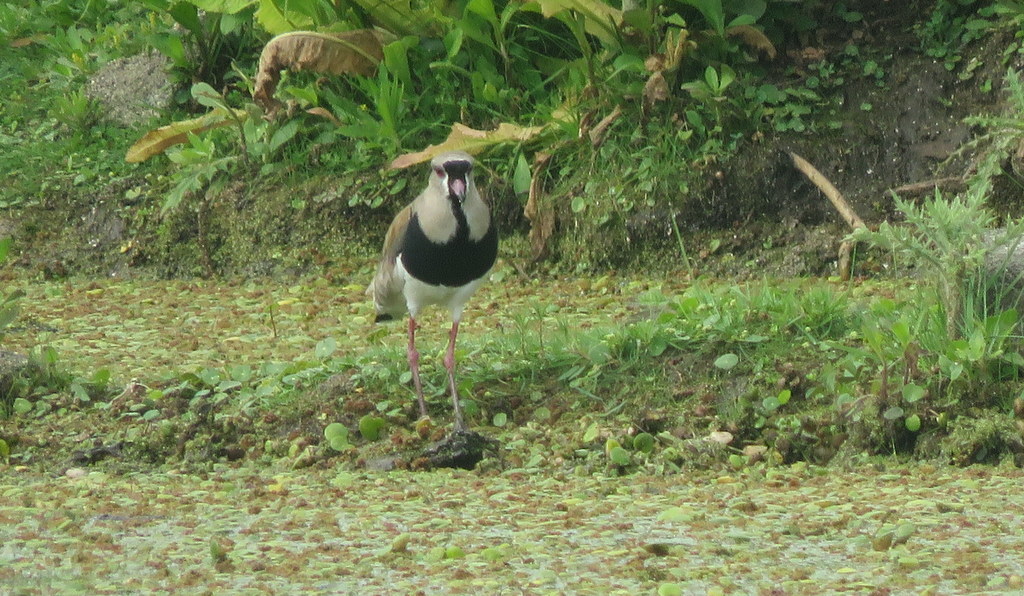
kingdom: Animalia
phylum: Chordata
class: Aves
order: Charadriiformes
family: Charadriidae
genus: Vanellus
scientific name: Vanellus chilensis
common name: Southern lapwing
